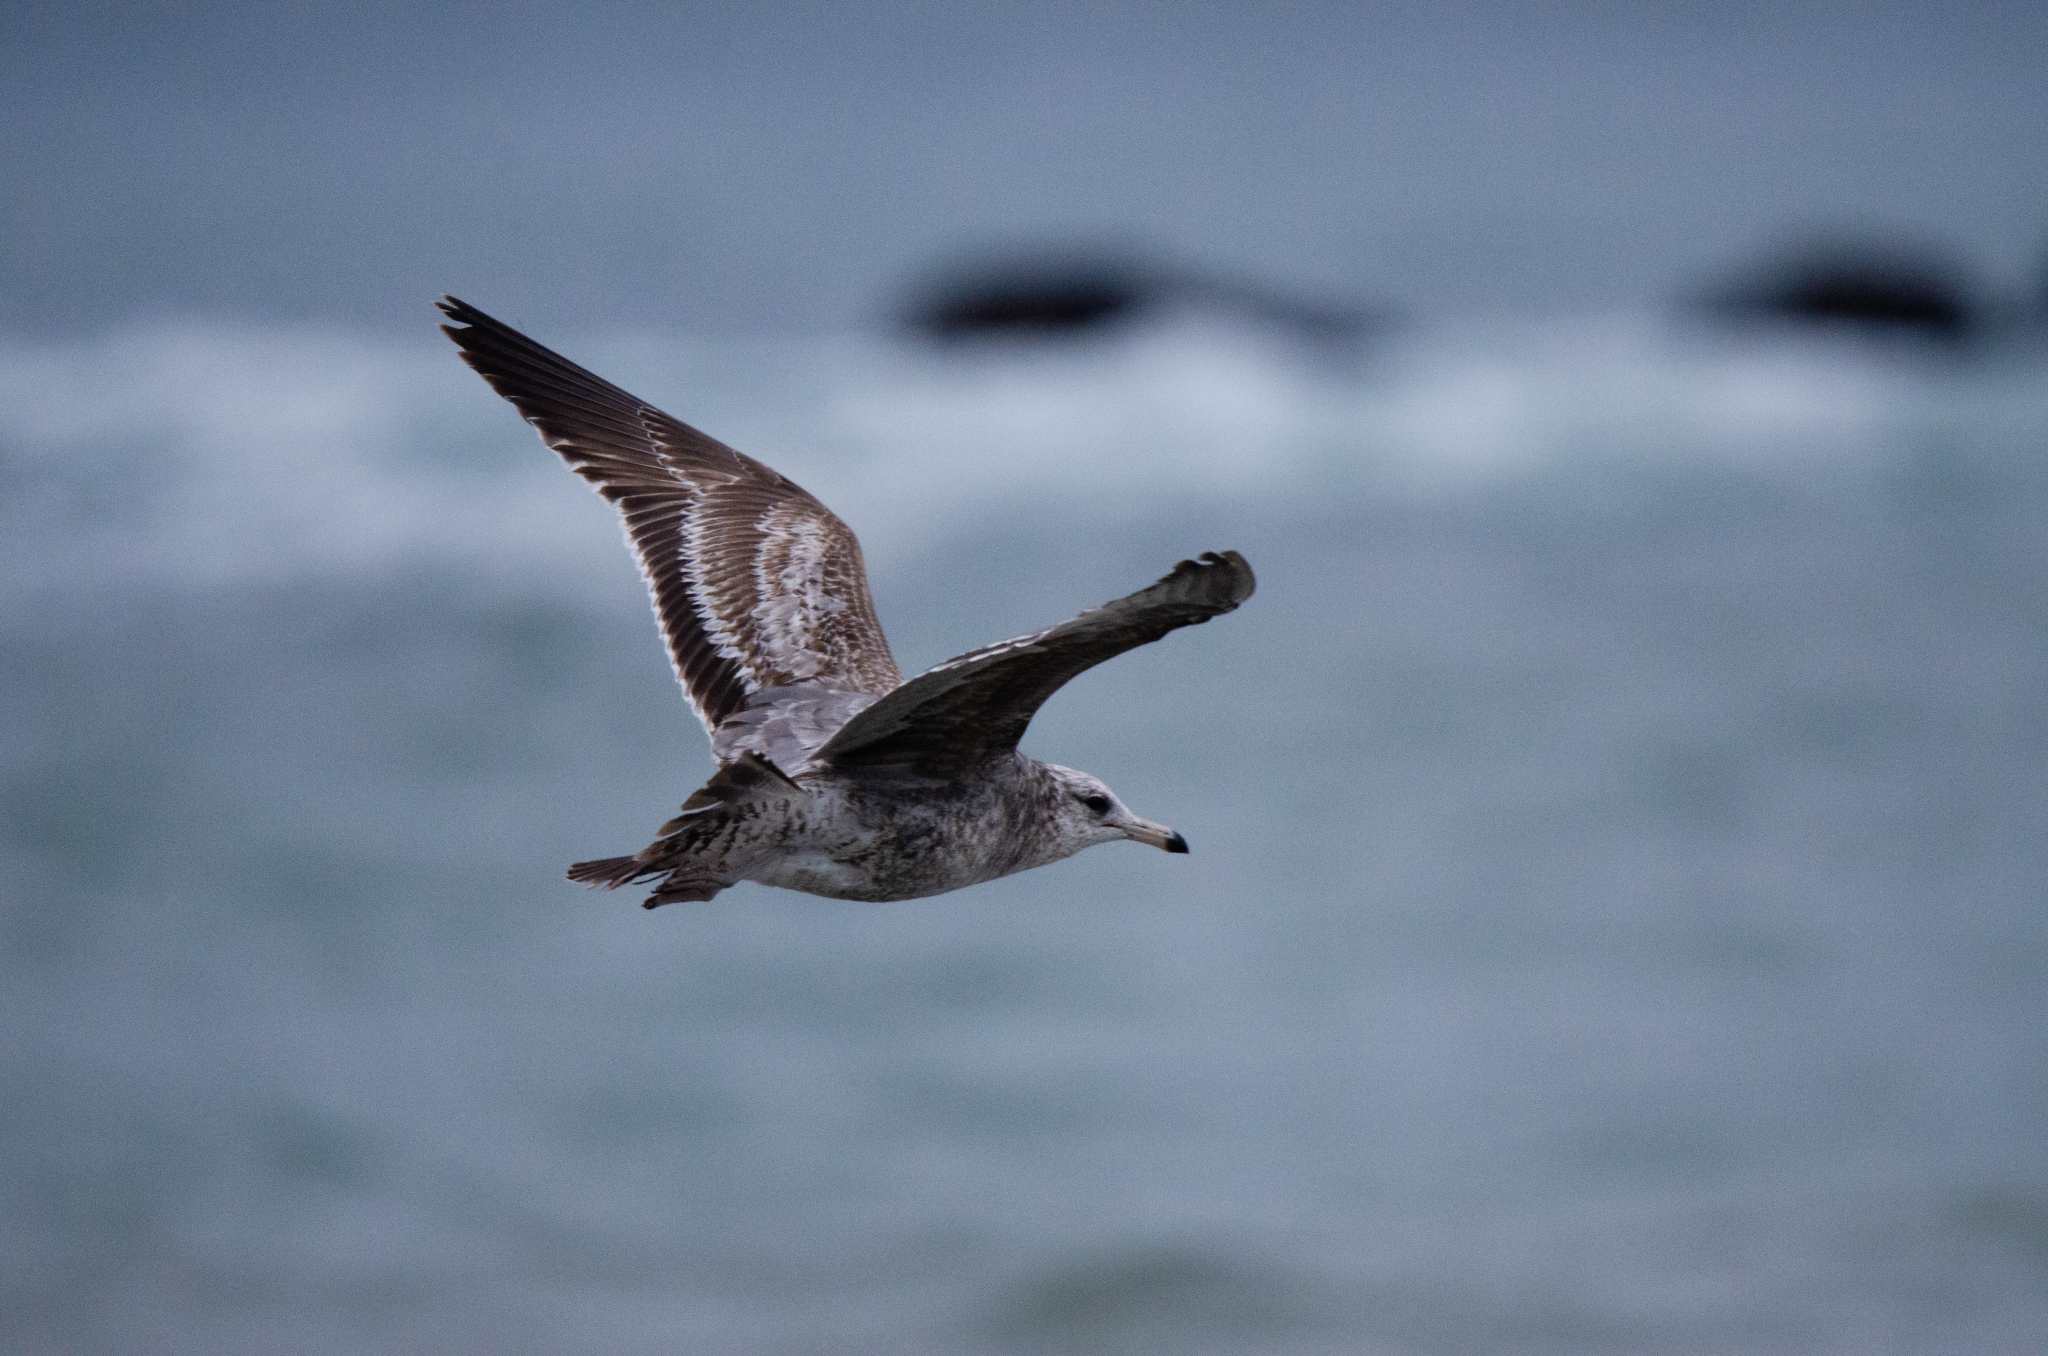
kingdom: Animalia
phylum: Chordata
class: Aves
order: Charadriiformes
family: Laridae
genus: Larus
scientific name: Larus californicus
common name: California gull
